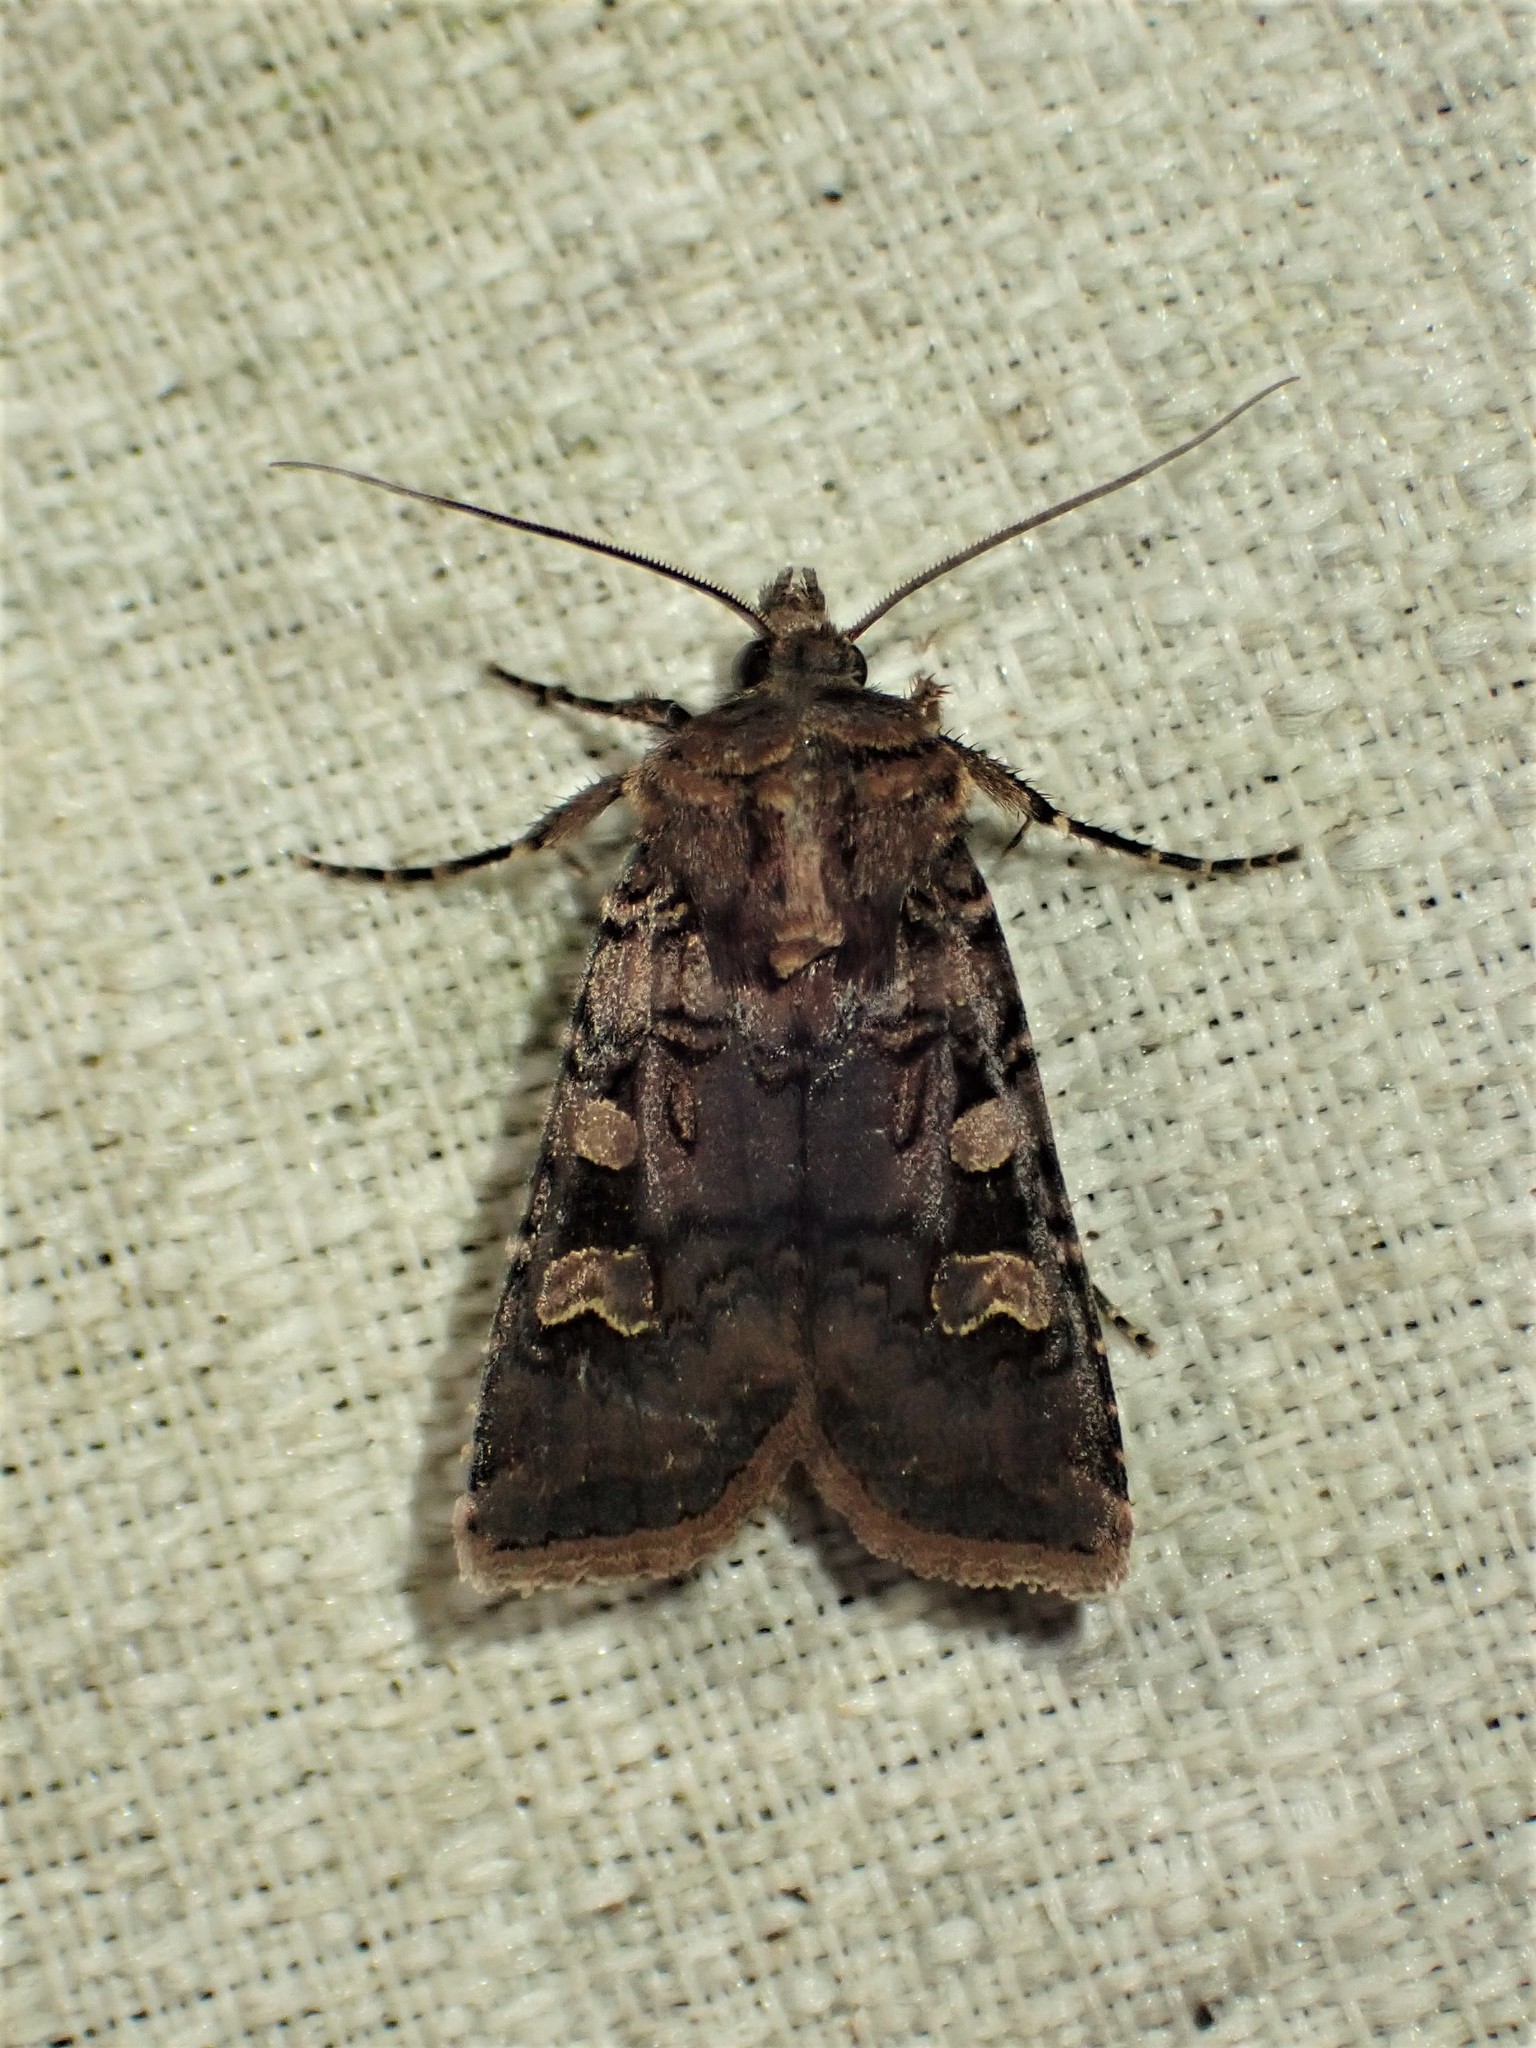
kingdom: Animalia
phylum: Arthropoda
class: Insecta
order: Lepidoptera
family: Noctuidae
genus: Euxoa
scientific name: Euxoa tessellata
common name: Striped cutworm
